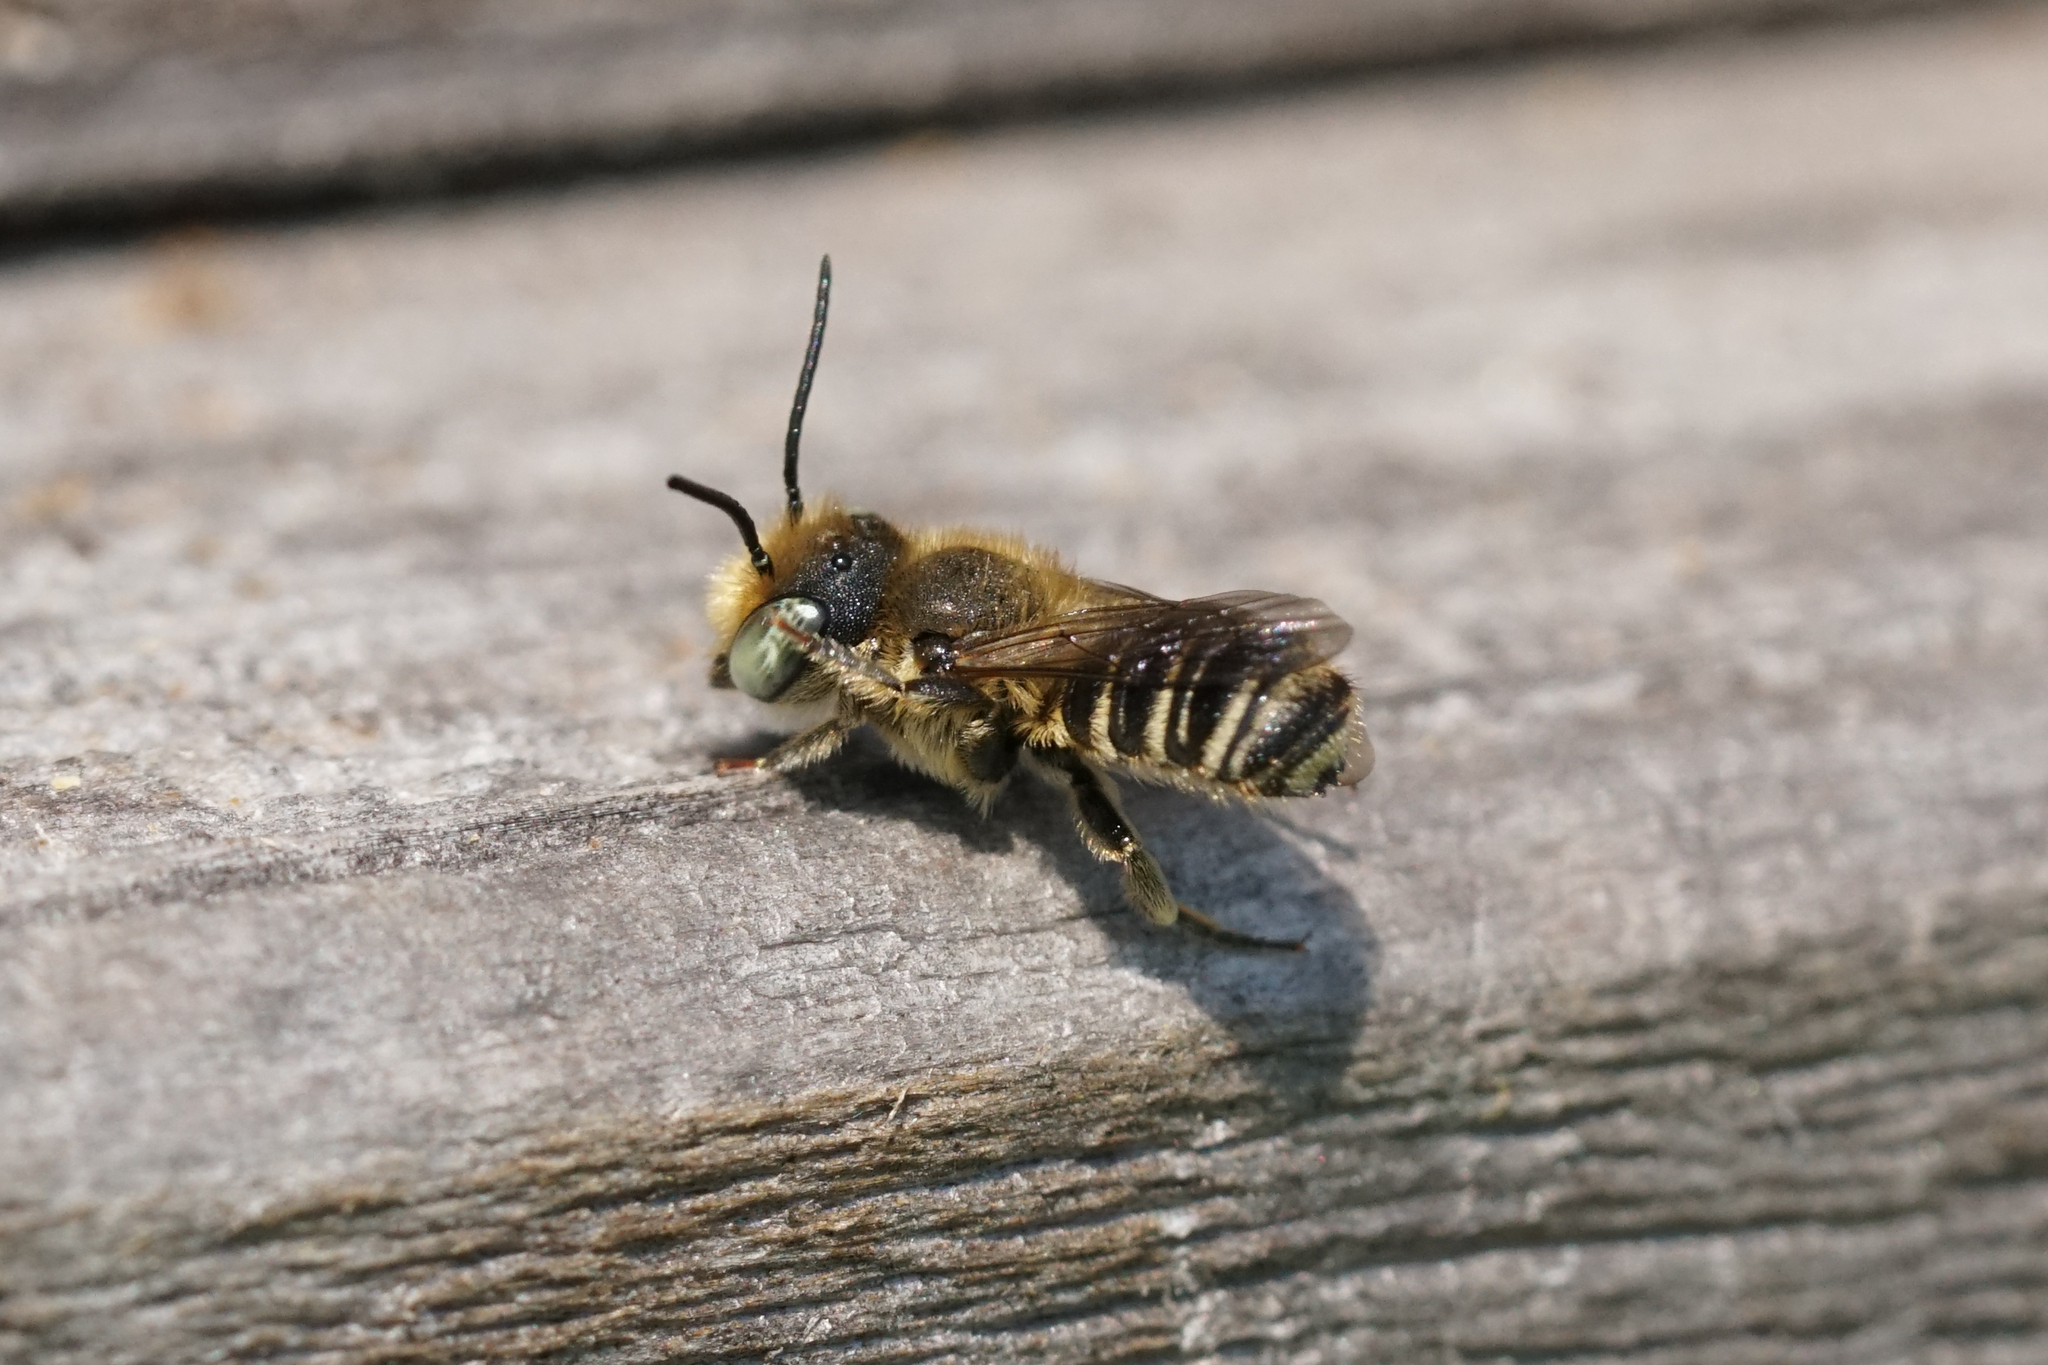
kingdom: Animalia
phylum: Arthropoda
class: Insecta
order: Hymenoptera
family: Megachilidae
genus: Megachile
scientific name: Megachile rotundata
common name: Alfalfa leafcutting bee
